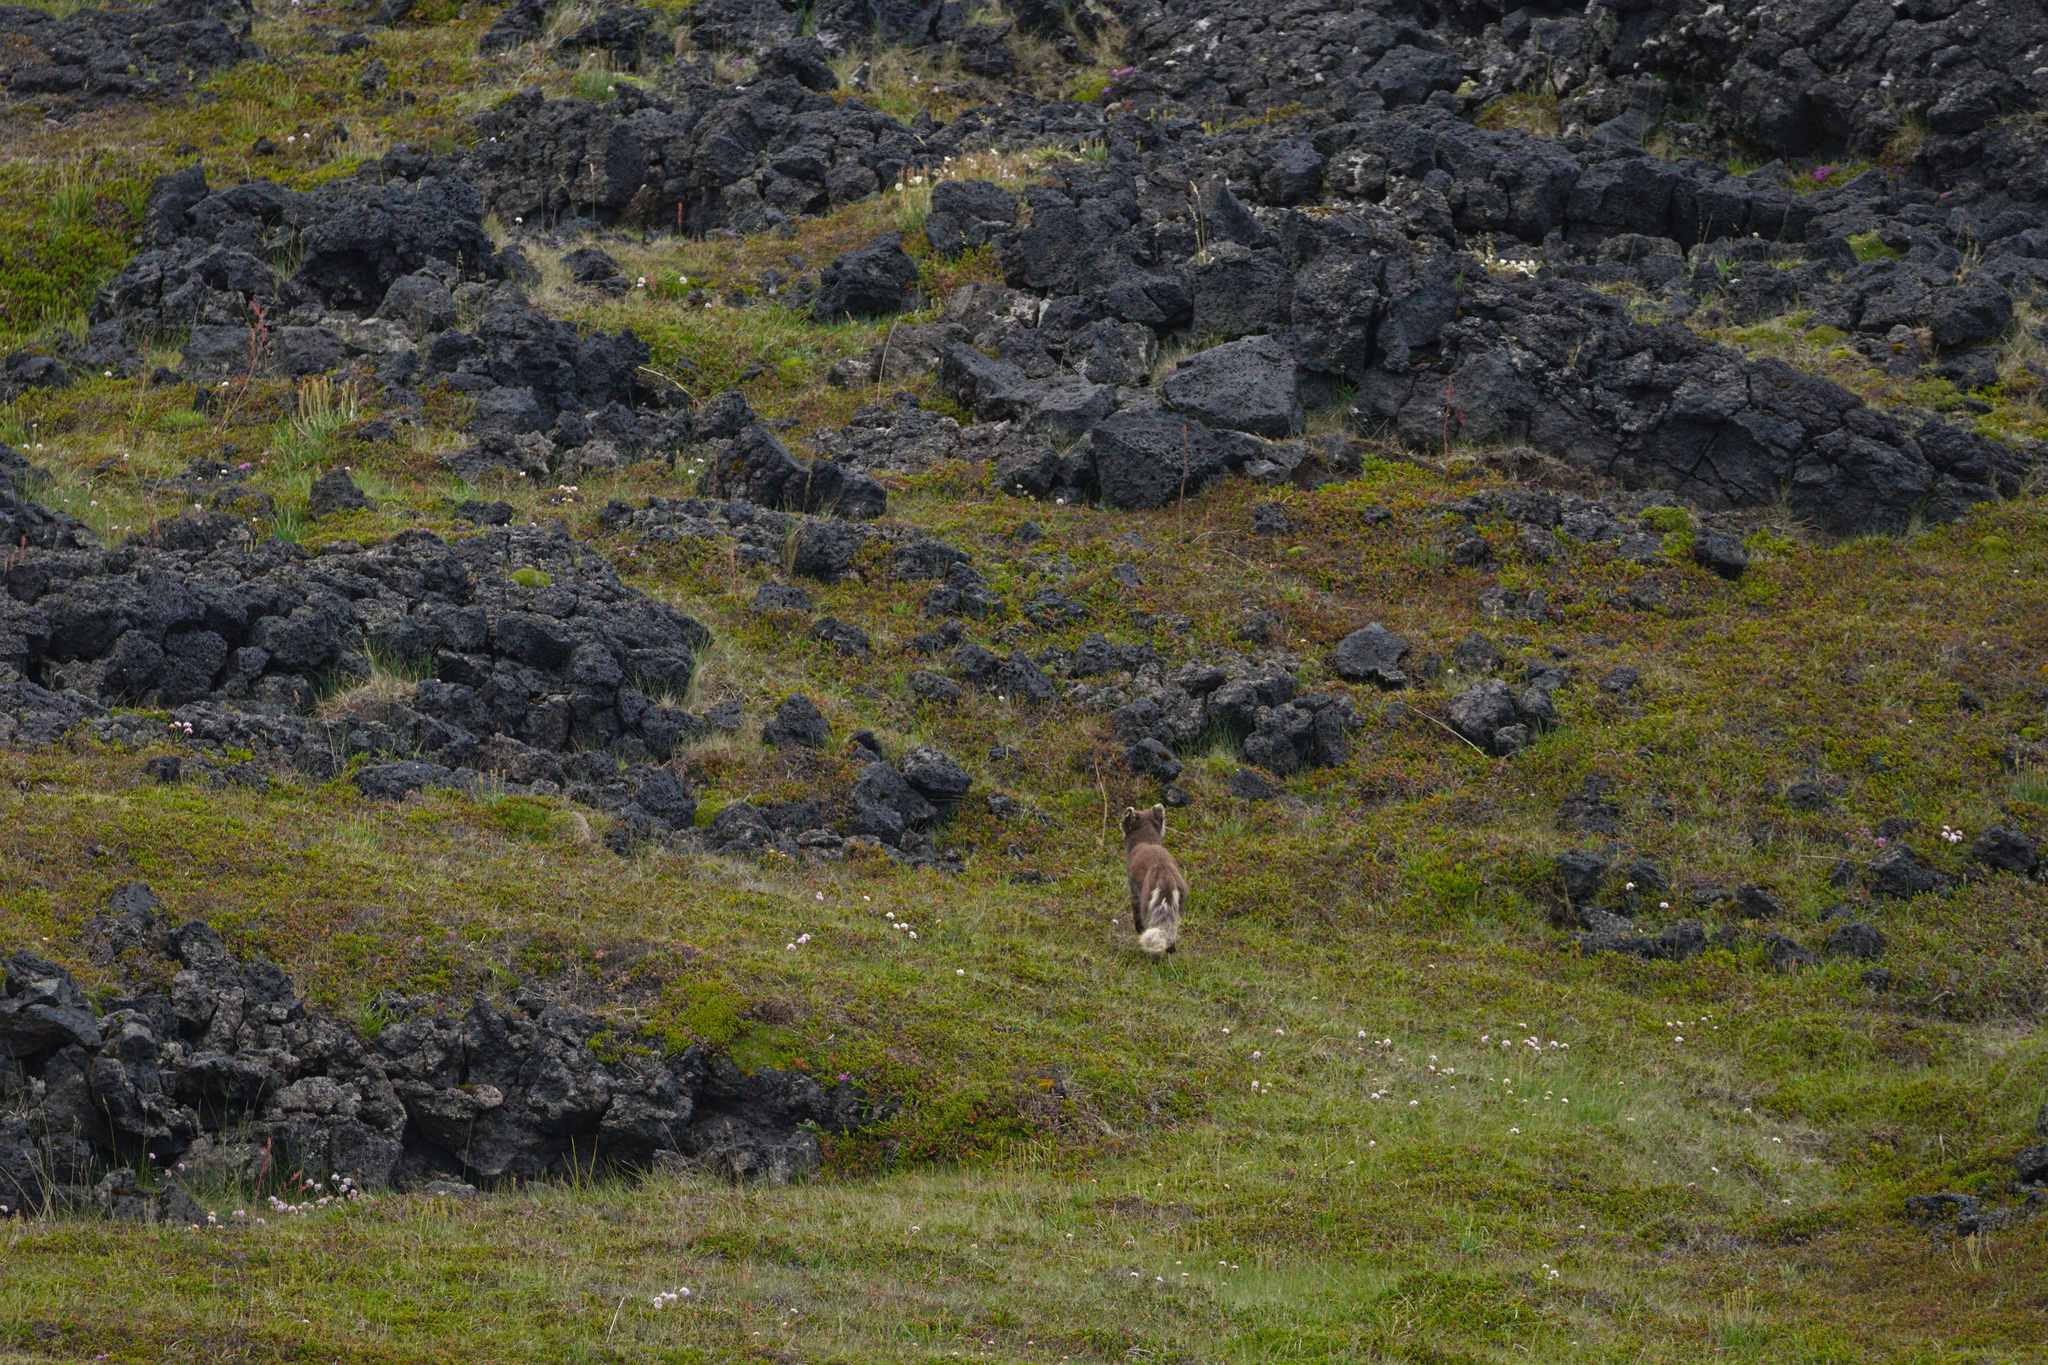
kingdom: Animalia
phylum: Chordata
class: Mammalia
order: Carnivora
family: Canidae
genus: Vulpes
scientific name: Vulpes lagopus
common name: Arctic fox
